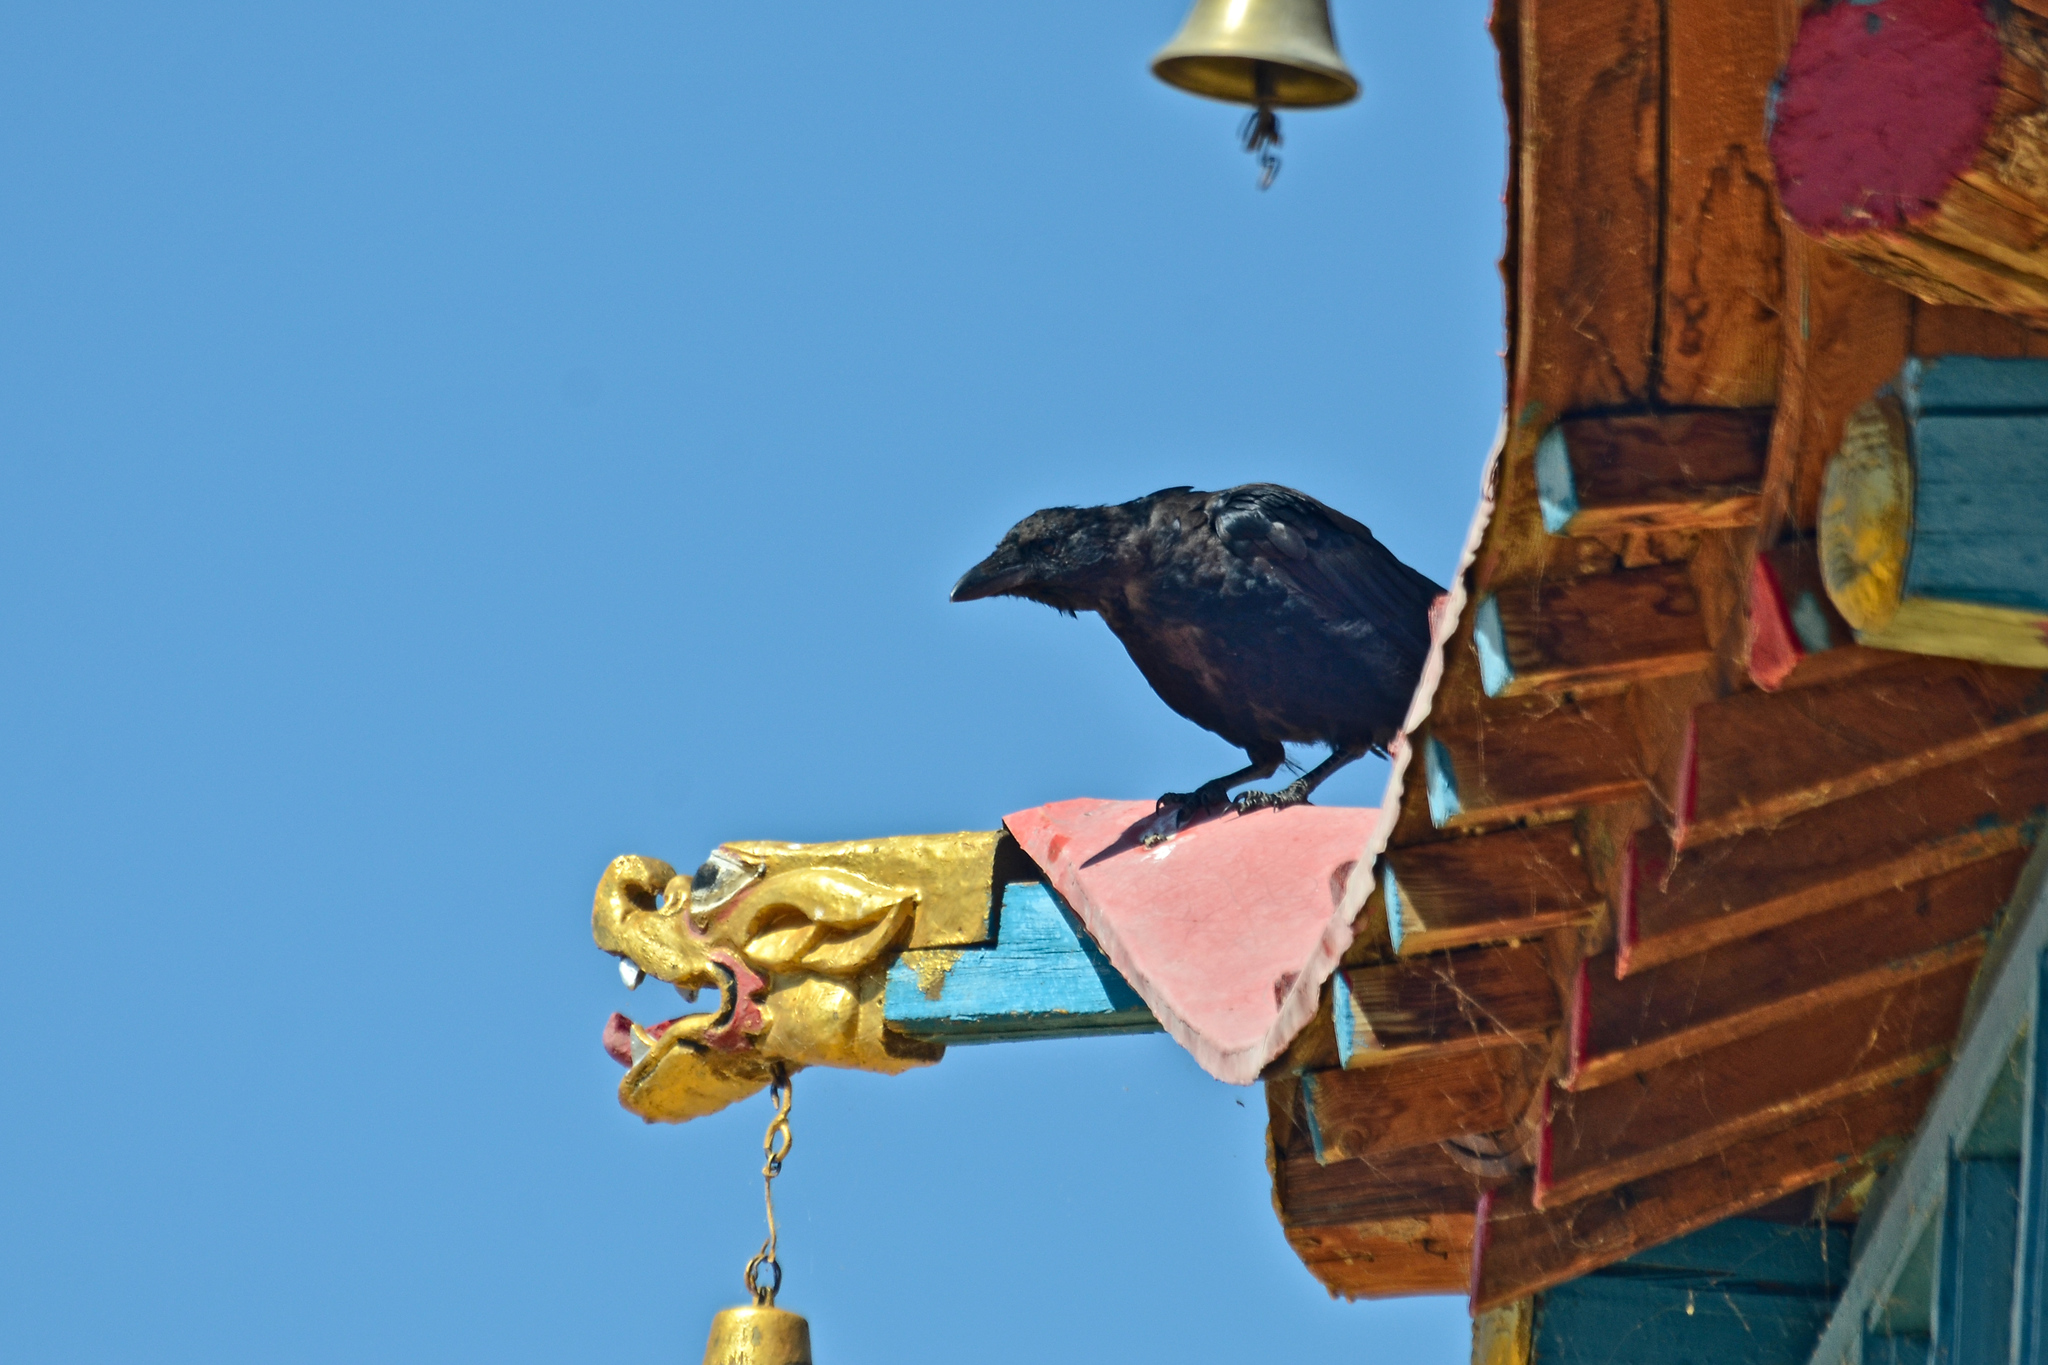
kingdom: Animalia
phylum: Chordata
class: Aves
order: Passeriformes
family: Corvidae
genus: Corvus
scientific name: Corvus corax
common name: Common raven
